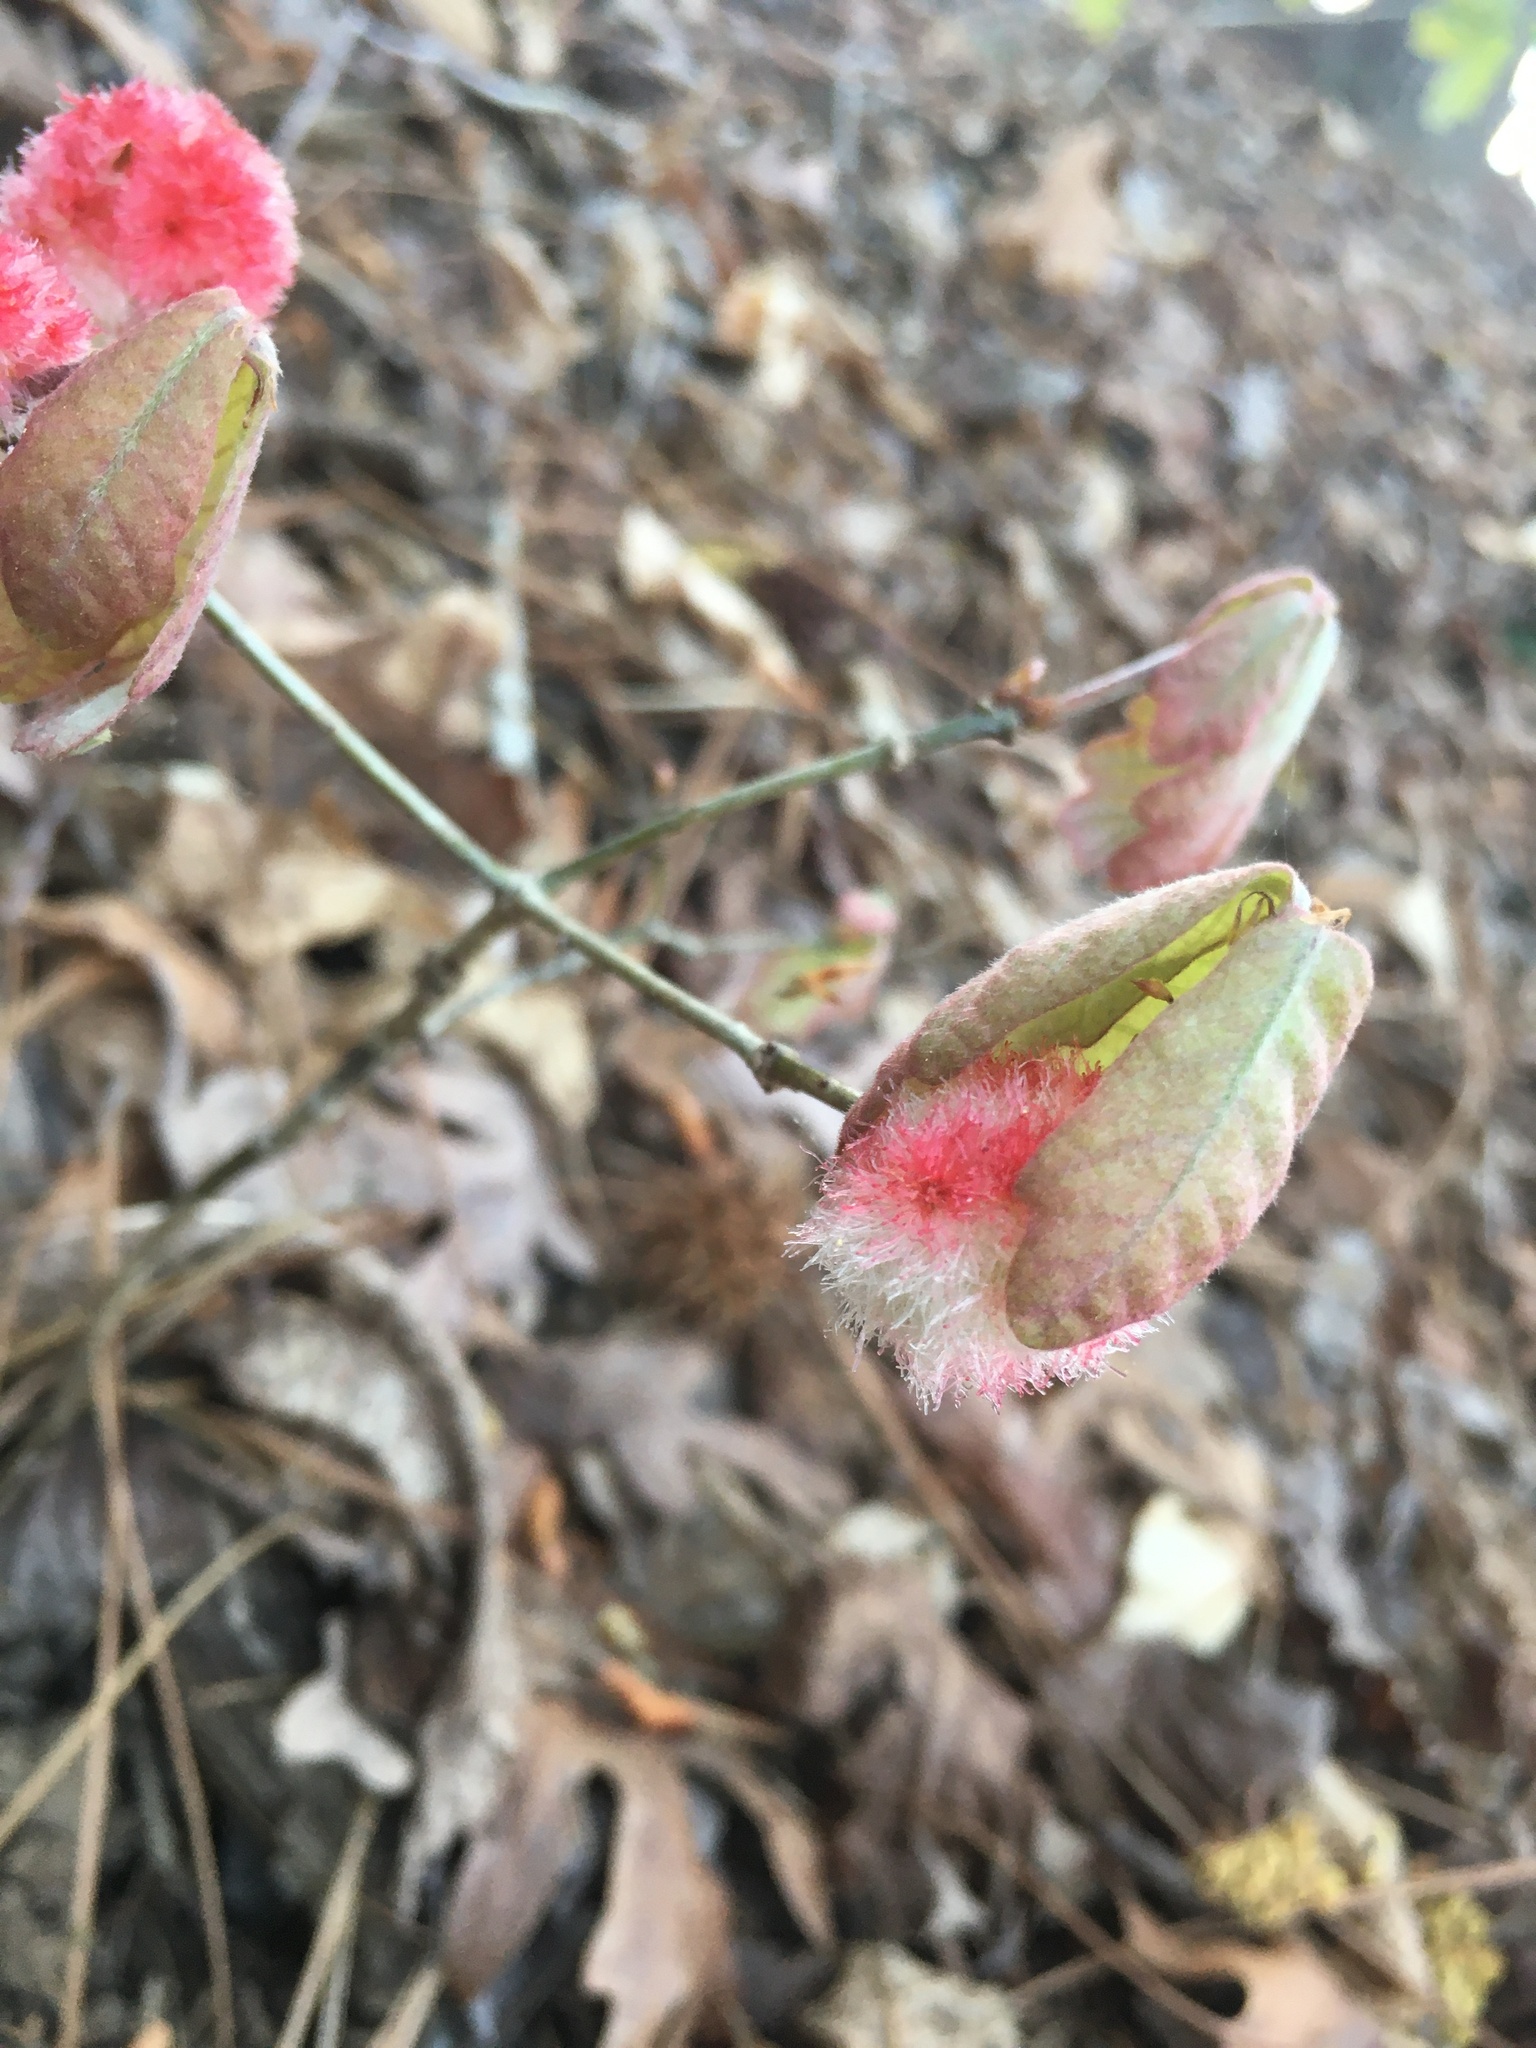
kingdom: Animalia
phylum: Arthropoda
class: Insecta
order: Hymenoptera
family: Cynipidae
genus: Callirhytis
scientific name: Callirhytis
